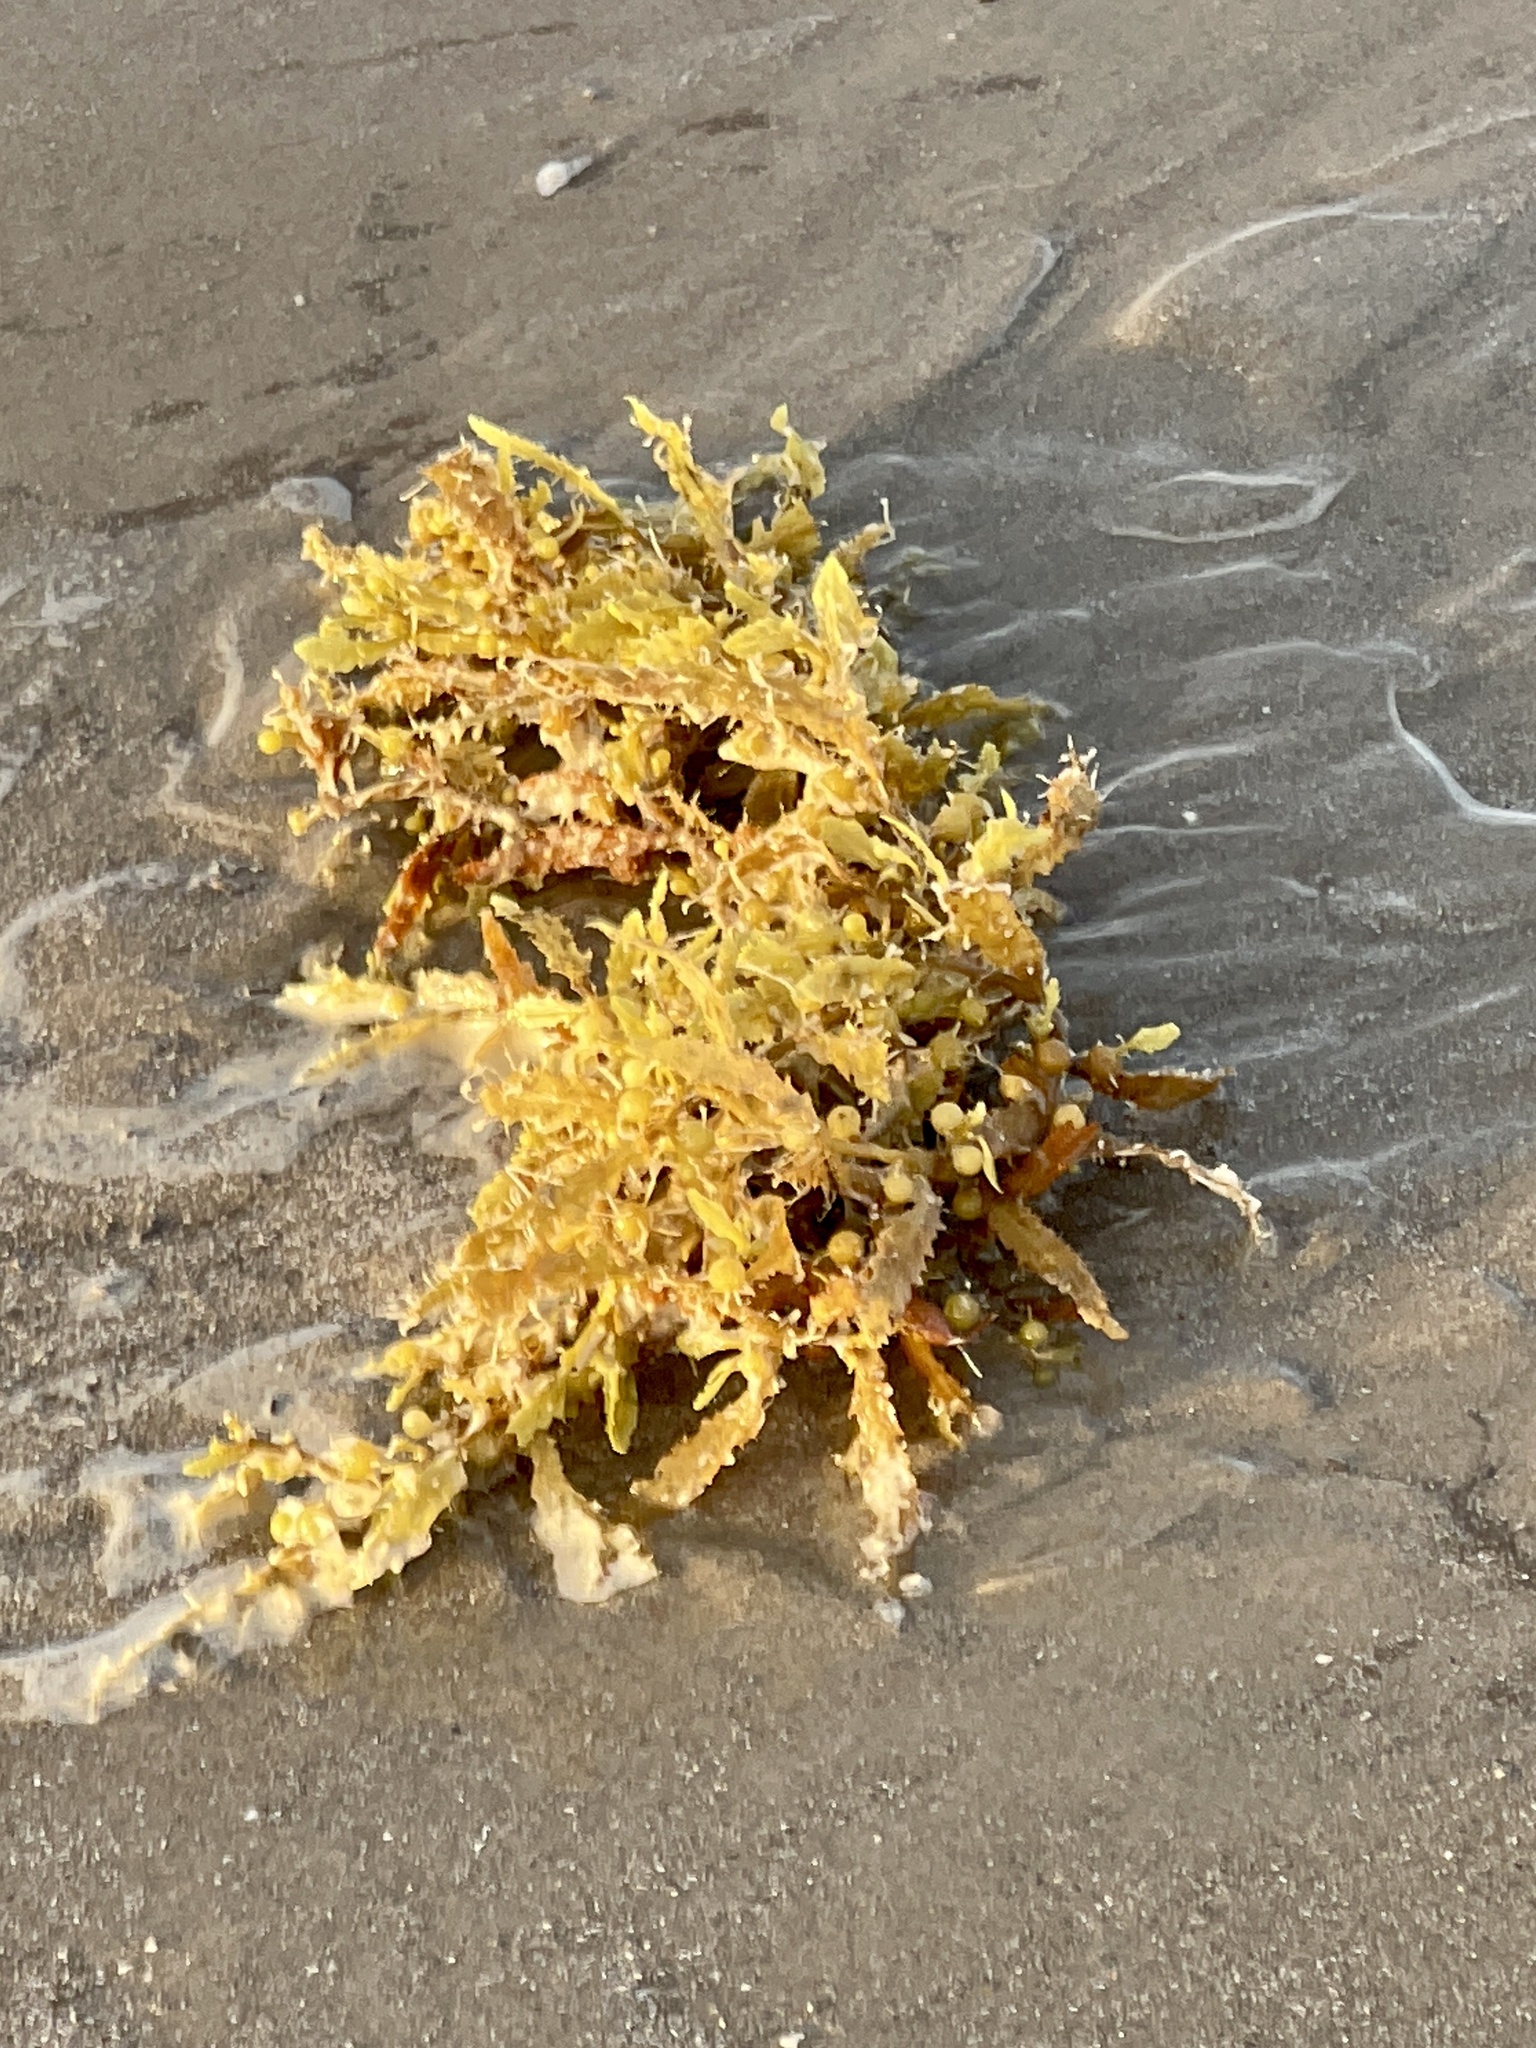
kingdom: Chromista
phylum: Ochrophyta
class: Phaeophyceae
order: Fucales
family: Sargassaceae
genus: Sargassum
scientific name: Sargassum fluitans
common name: Sargassum seaweed
